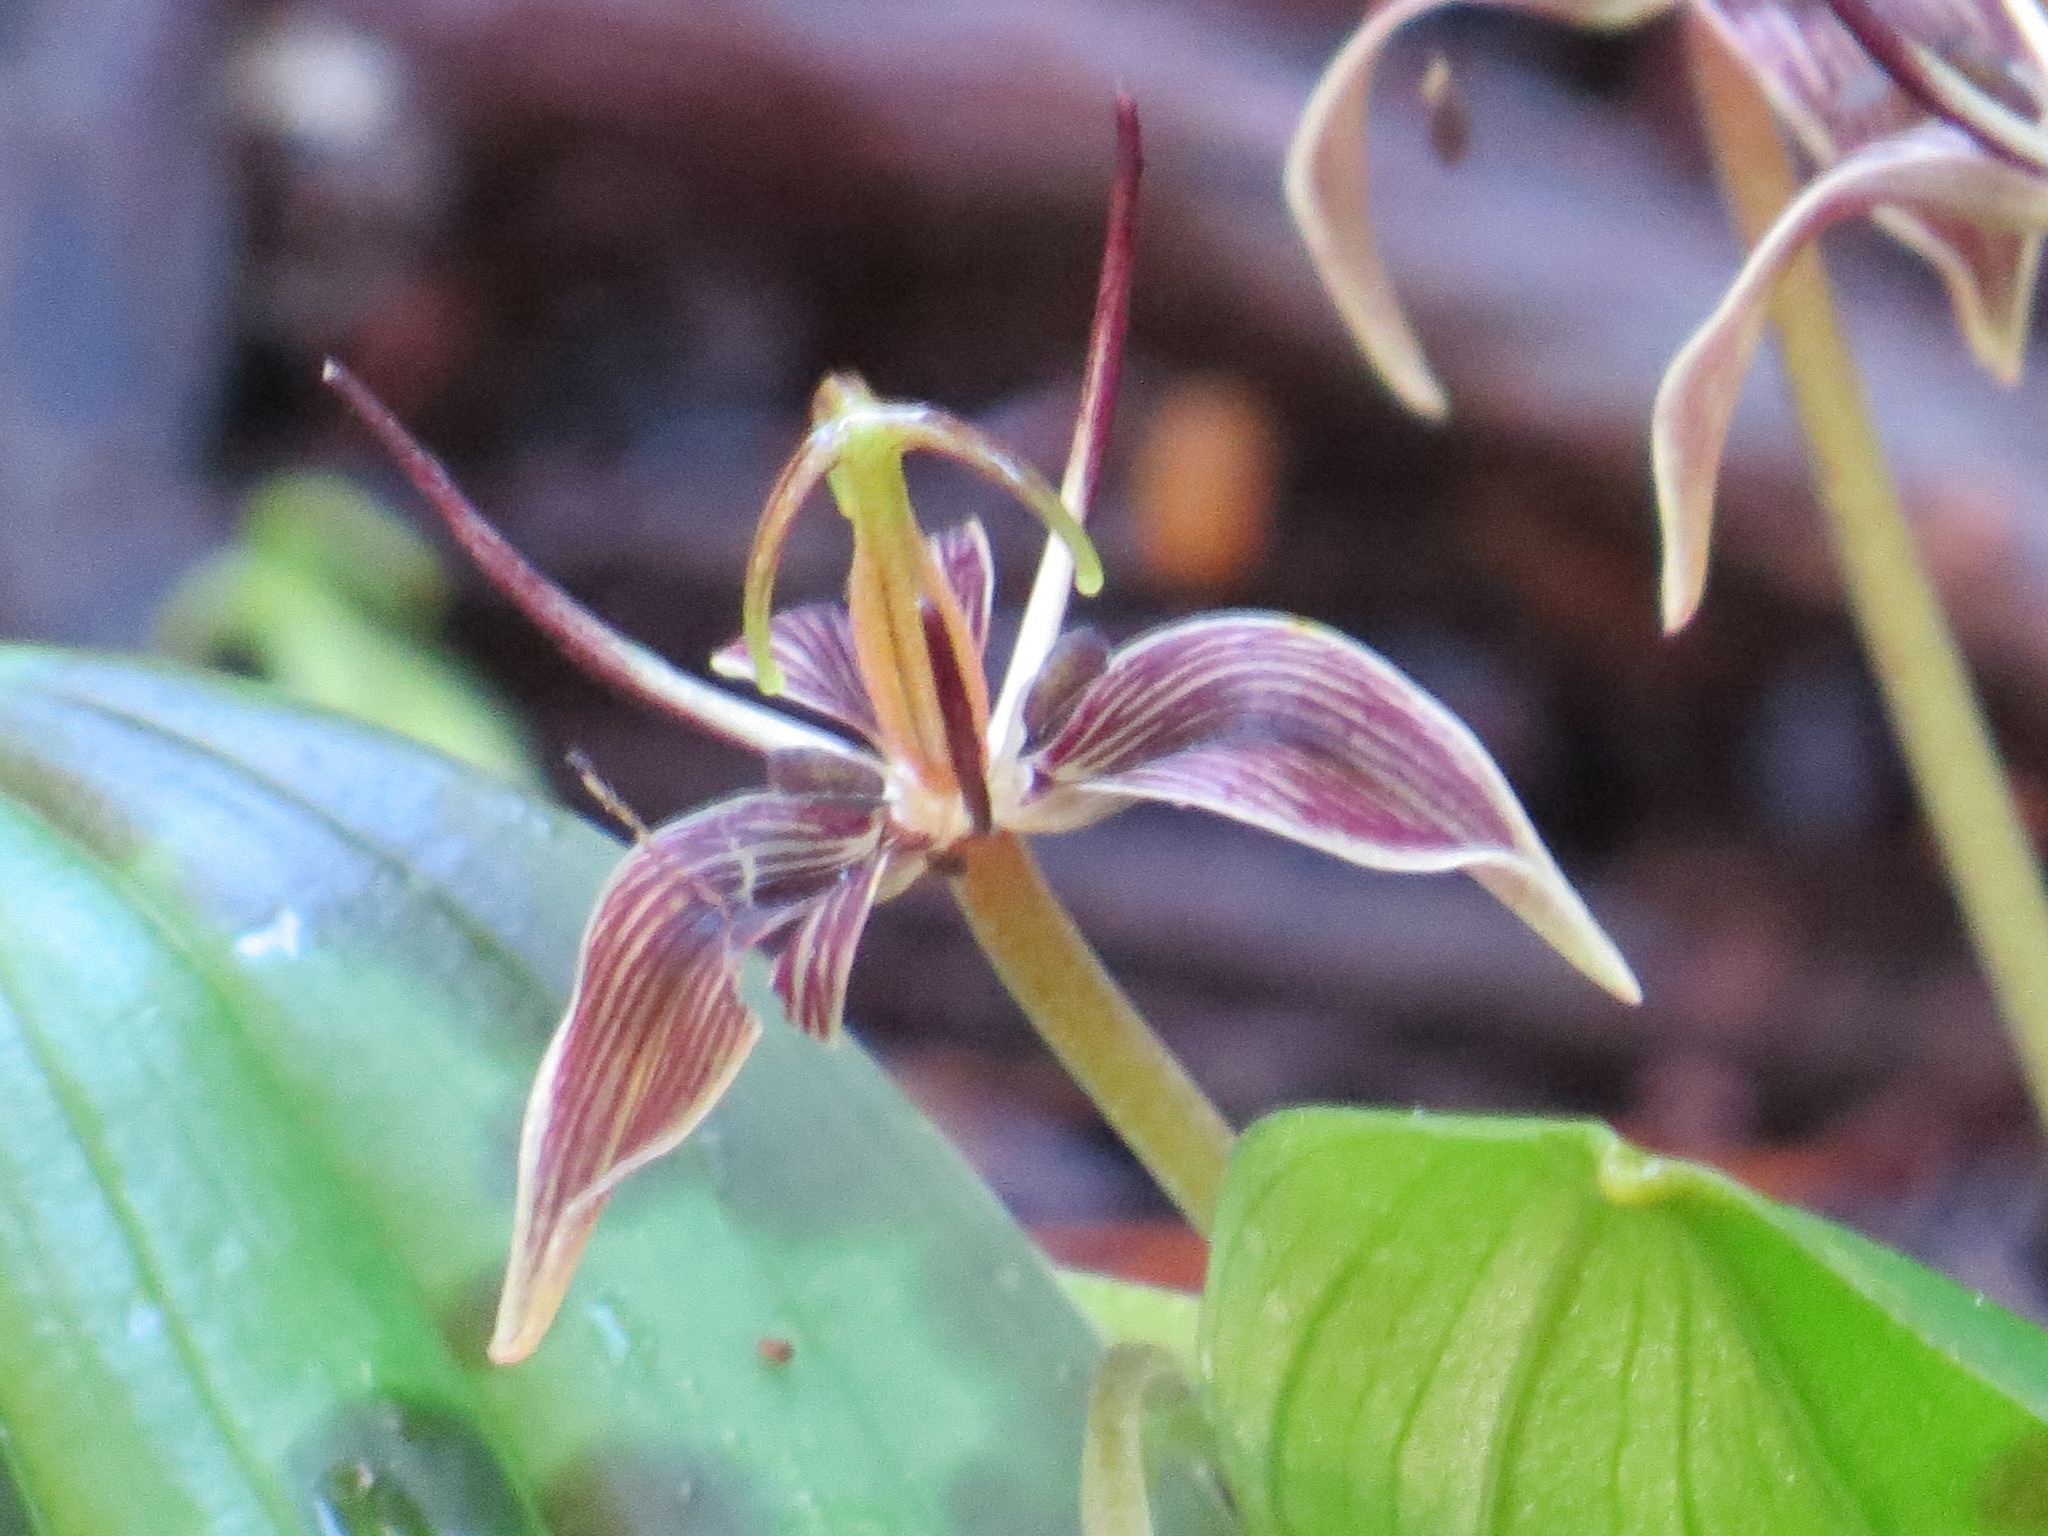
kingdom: Plantae
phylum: Tracheophyta
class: Liliopsida
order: Liliales
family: Liliaceae
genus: Scoliopus
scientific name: Scoliopus bigelovii
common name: Foetid adder's-tongue
